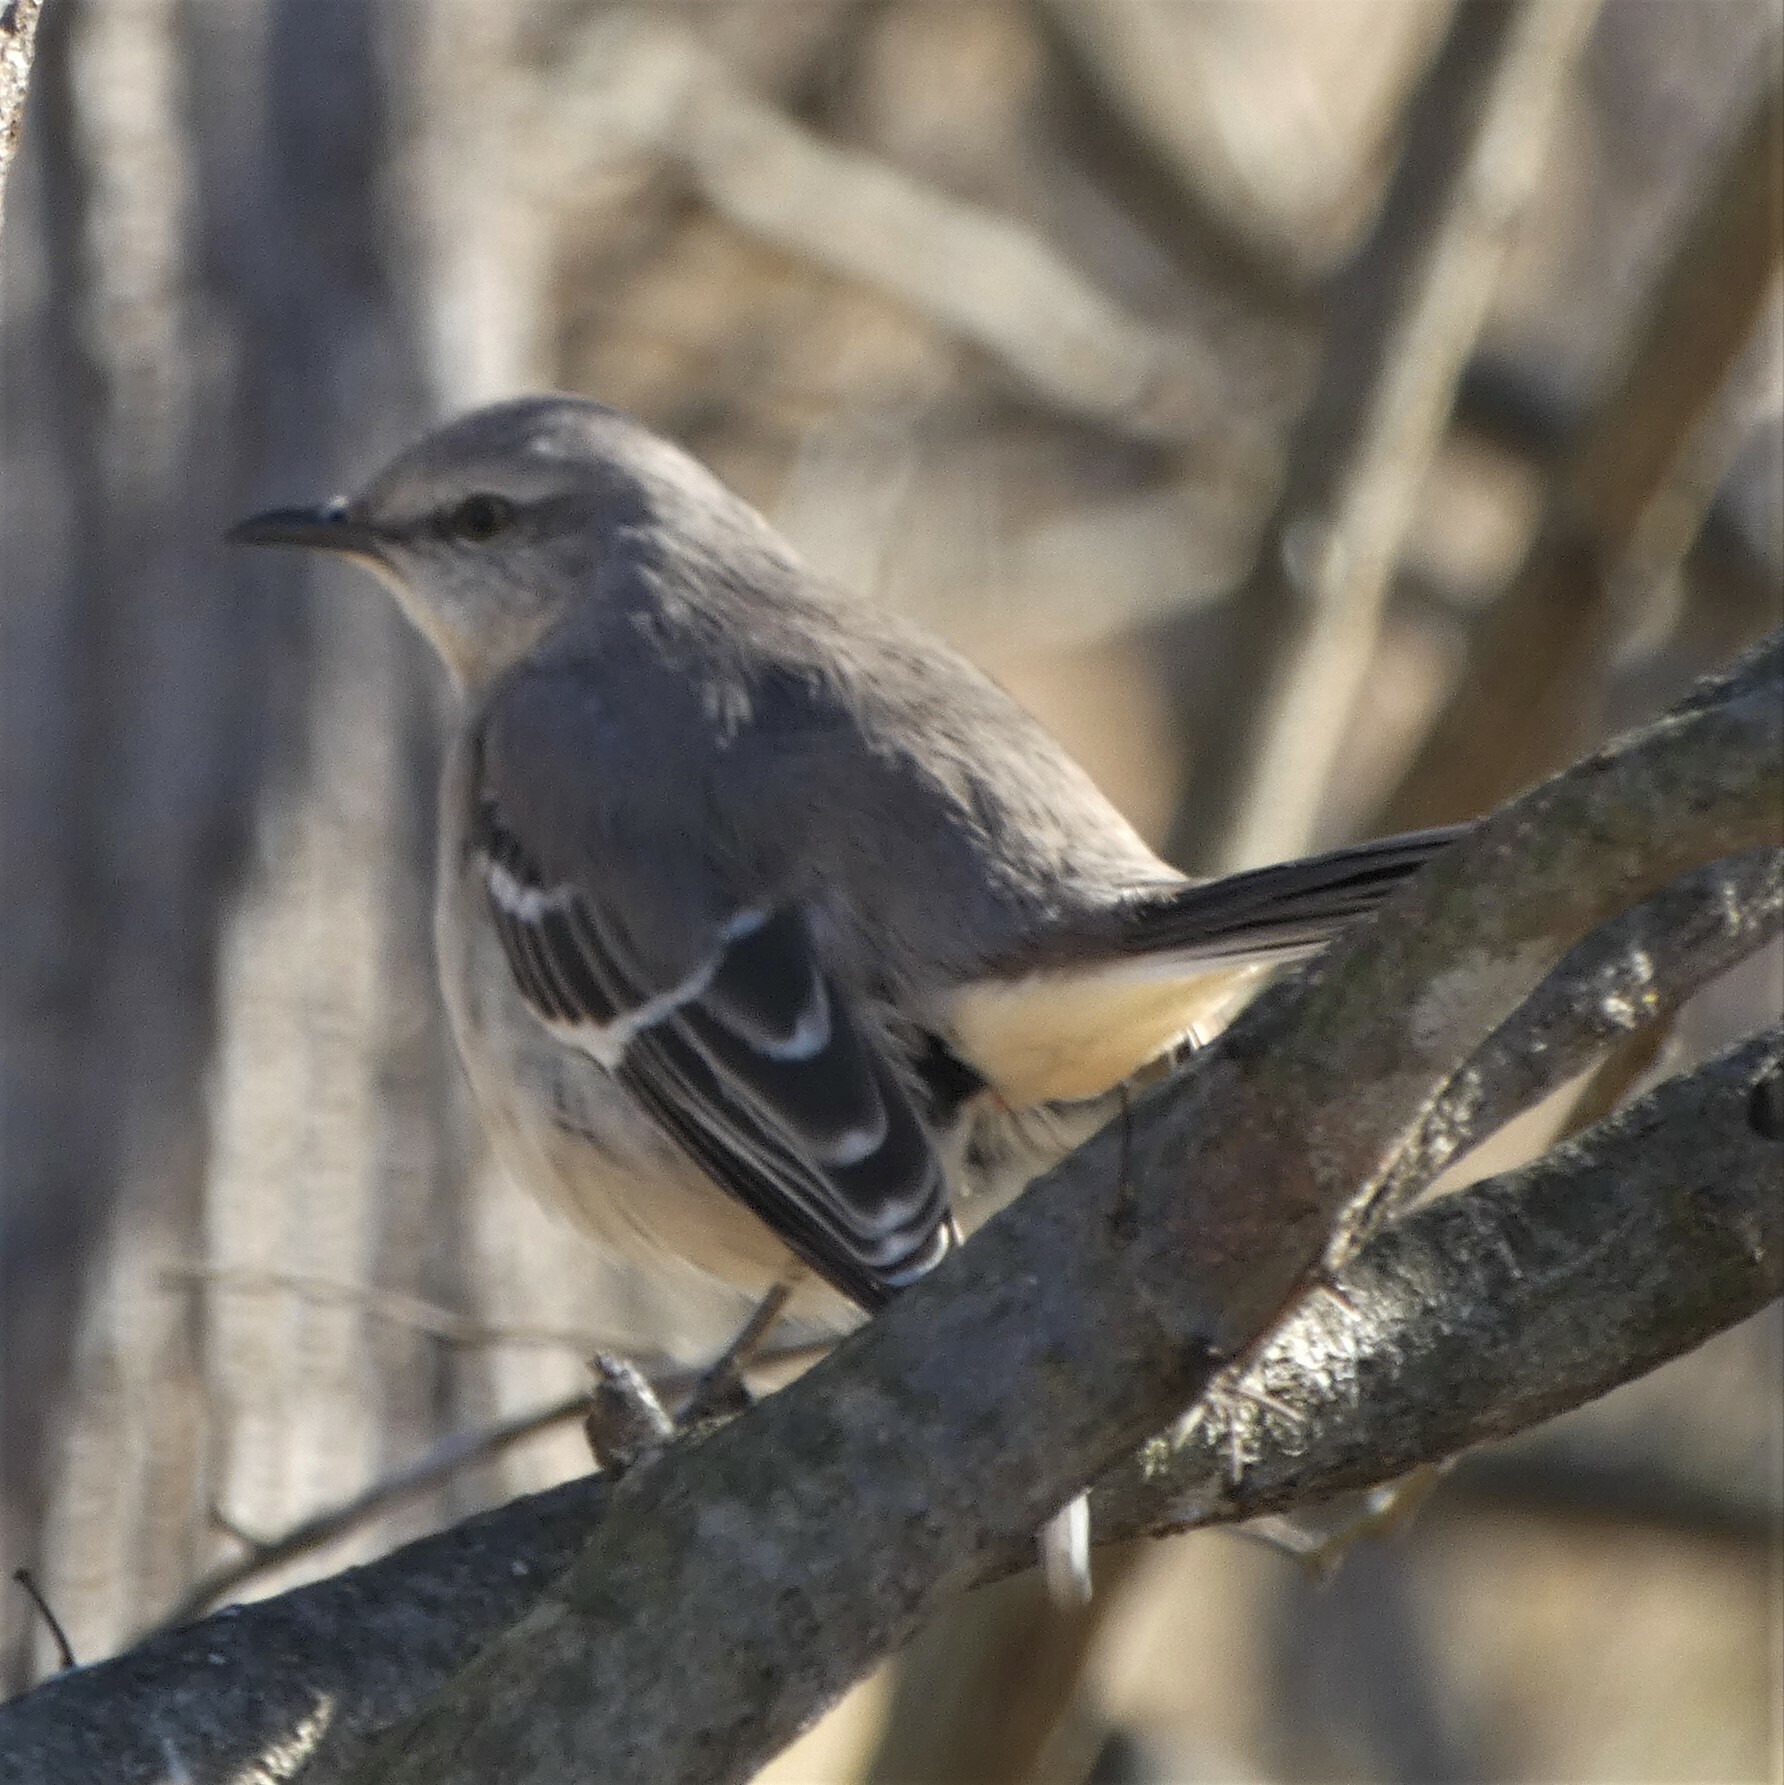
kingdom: Animalia
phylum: Chordata
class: Aves
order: Passeriformes
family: Mimidae
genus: Mimus
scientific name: Mimus polyglottos
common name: Northern mockingbird
